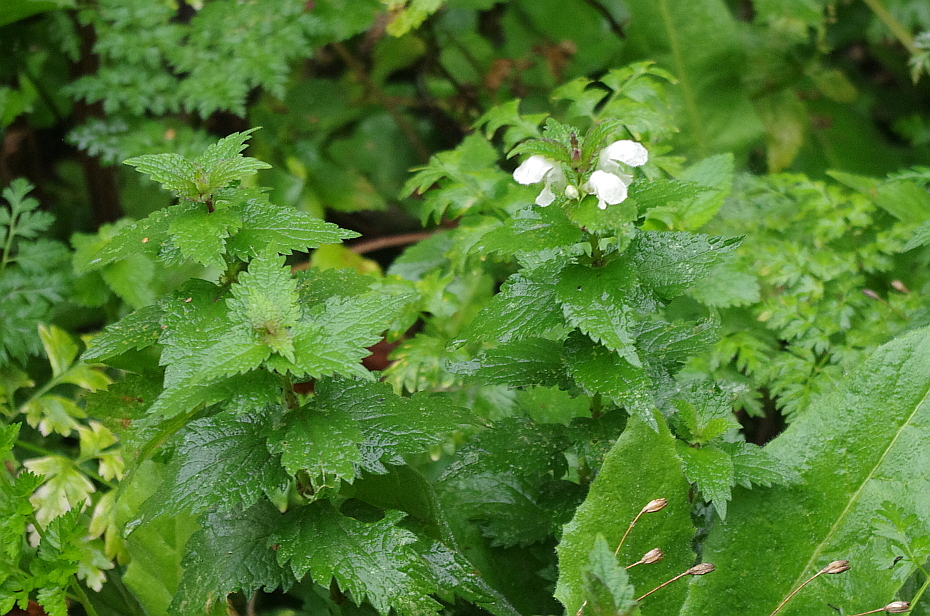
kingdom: Plantae
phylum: Tracheophyta
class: Magnoliopsida
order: Lamiales
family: Lamiaceae
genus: Lamium
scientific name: Lamium album
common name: White dead-nettle
